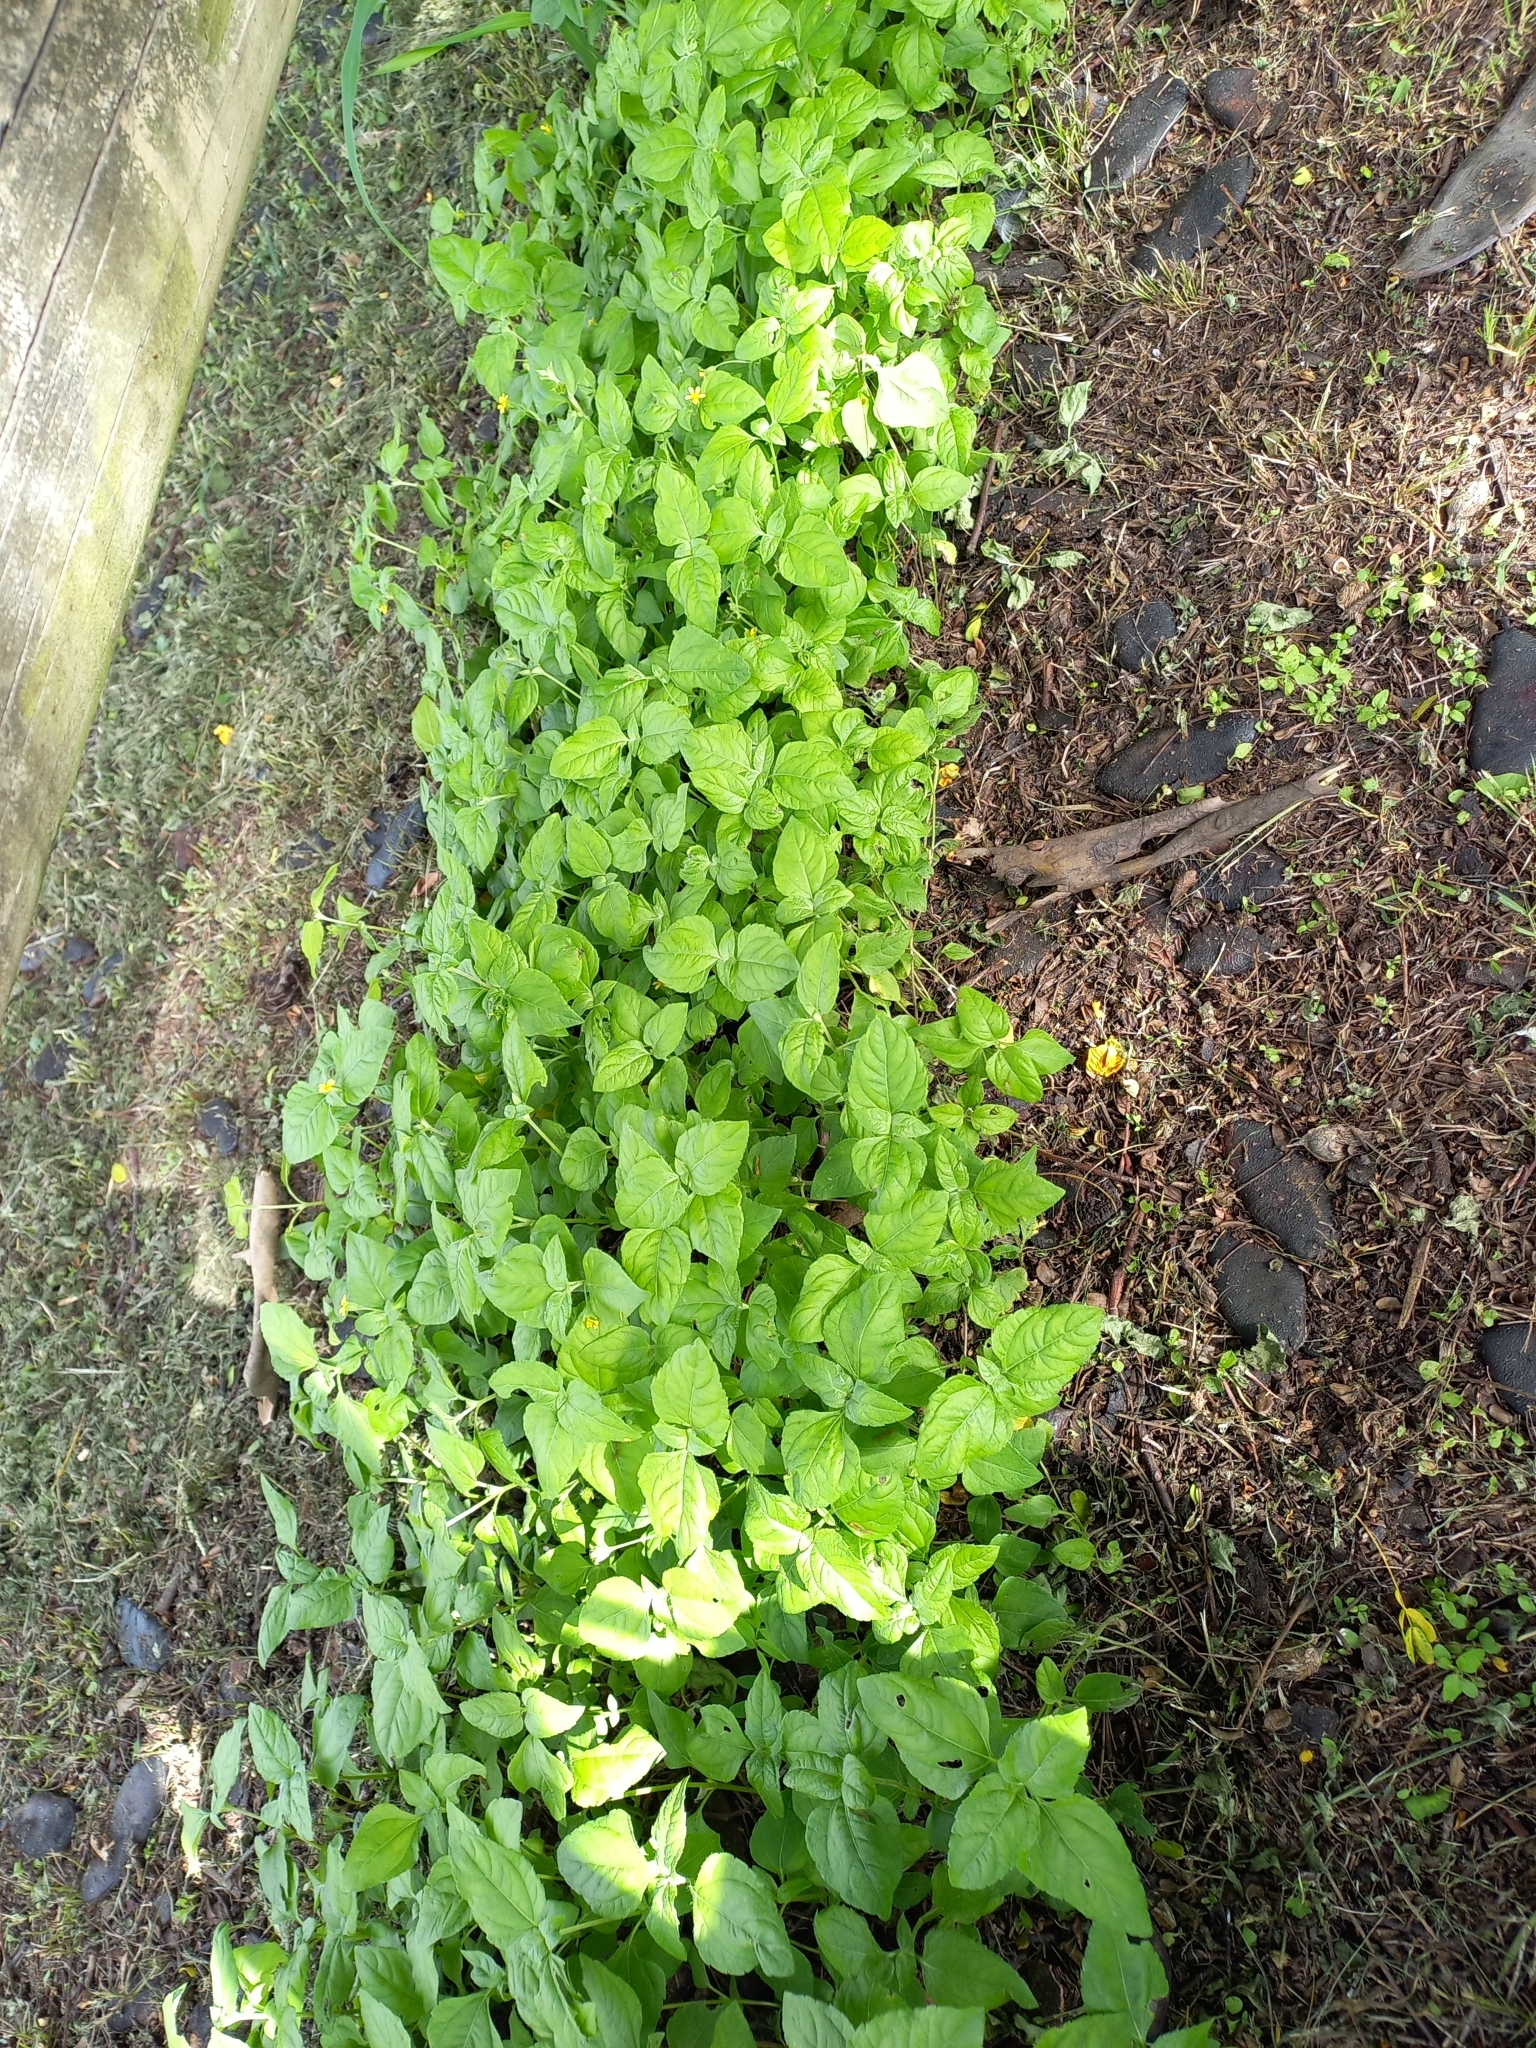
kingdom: Plantae
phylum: Tracheophyta
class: Magnoliopsida
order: Asterales
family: Asteraceae
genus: Calyptocarpus
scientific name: Calyptocarpus vialis
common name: Straggler daisy
